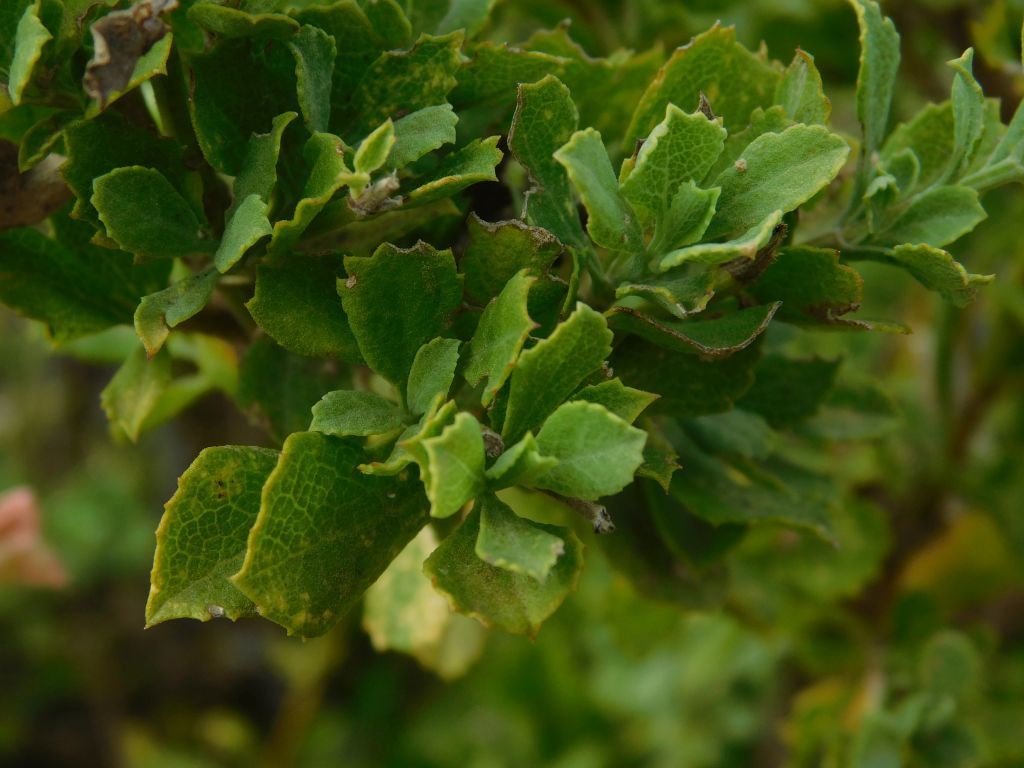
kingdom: Plantae
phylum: Tracheophyta
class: Magnoliopsida
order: Lamiales
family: Lamiaceae
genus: Salvia
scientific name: Salvia chamelaeagnea
